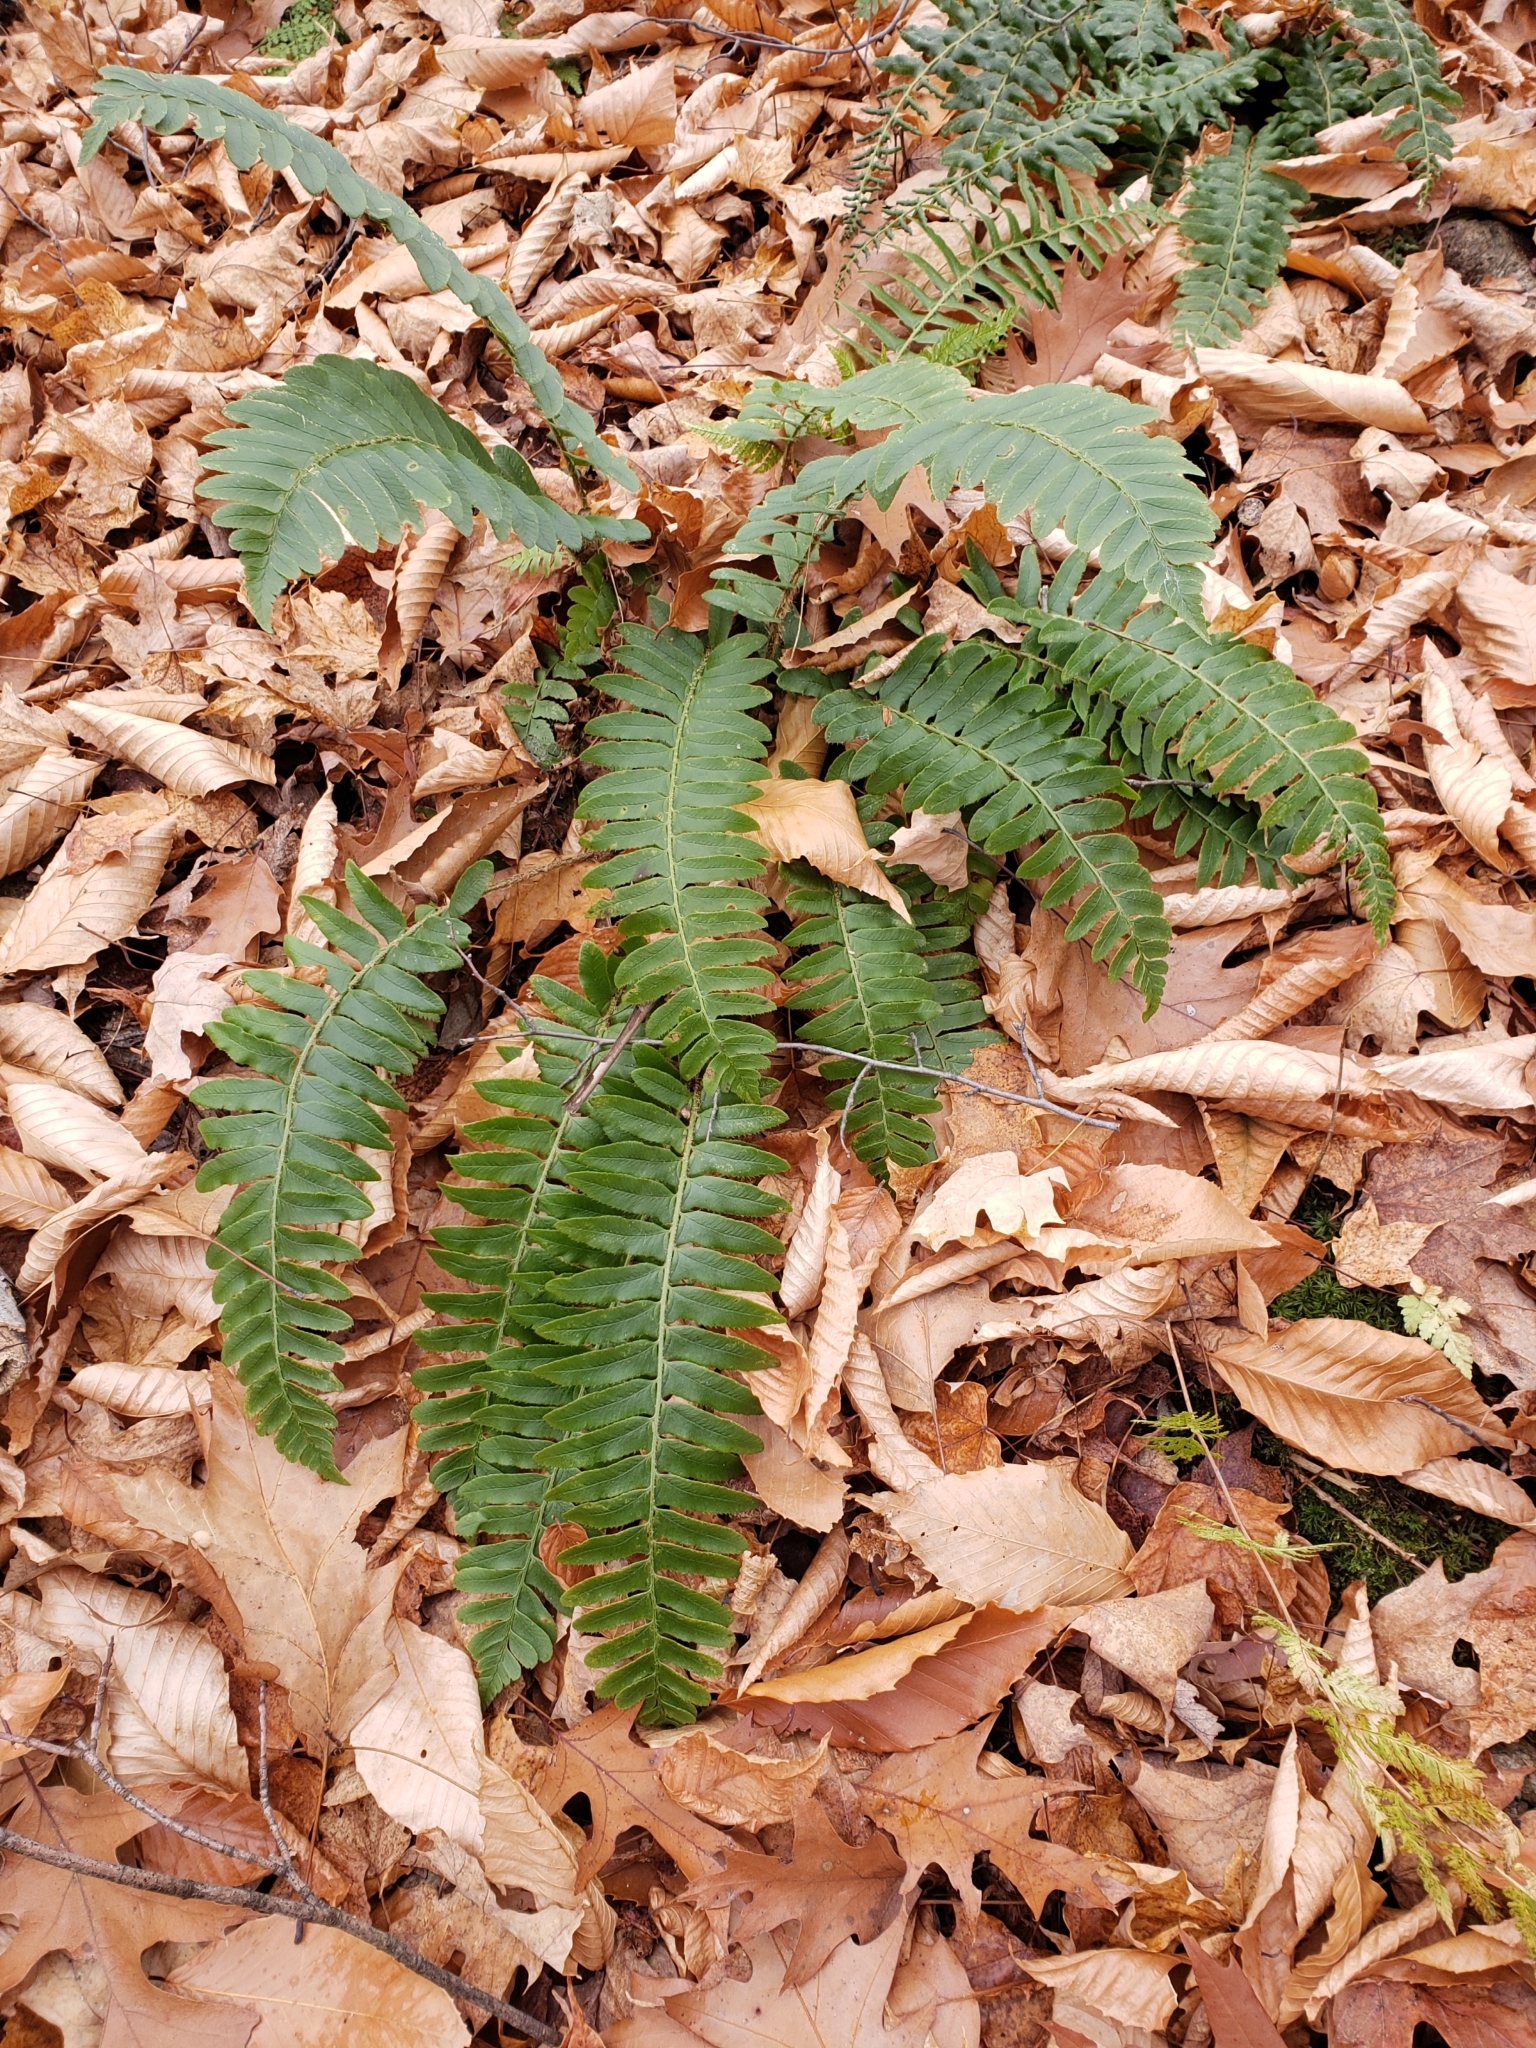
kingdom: Plantae
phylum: Tracheophyta
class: Polypodiopsida
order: Polypodiales
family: Dryopteridaceae
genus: Polystichum
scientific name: Polystichum acrostichoides
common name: Christmas fern
